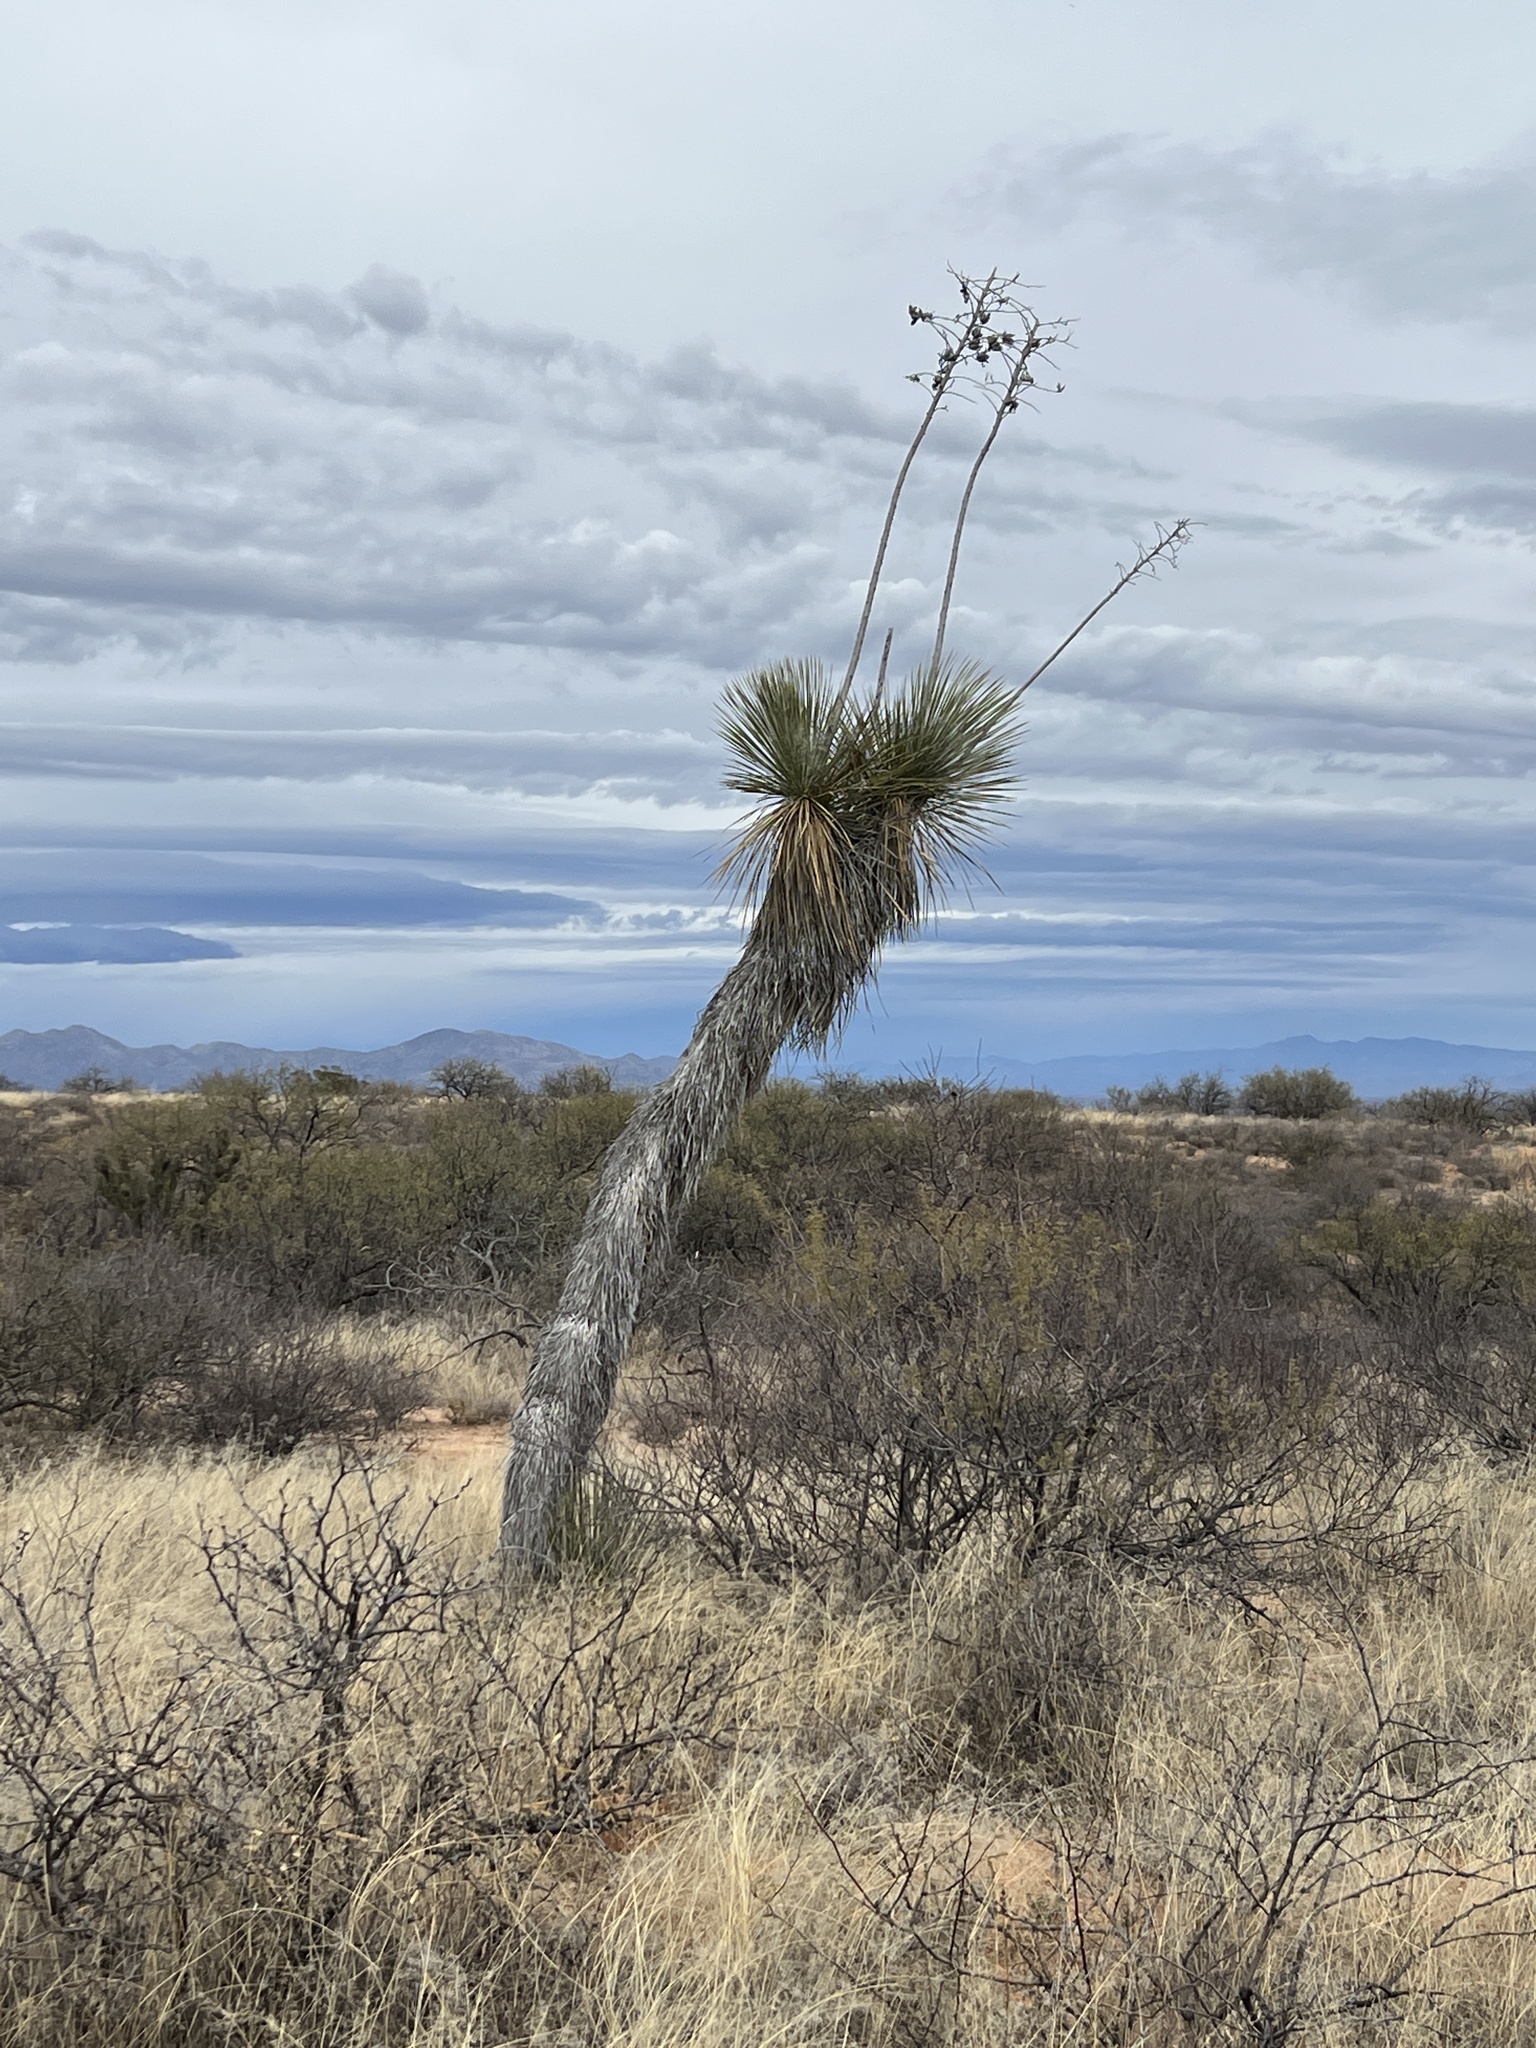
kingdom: Plantae
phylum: Tracheophyta
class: Liliopsida
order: Asparagales
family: Asparagaceae
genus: Yucca
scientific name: Yucca elata
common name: Palmella
